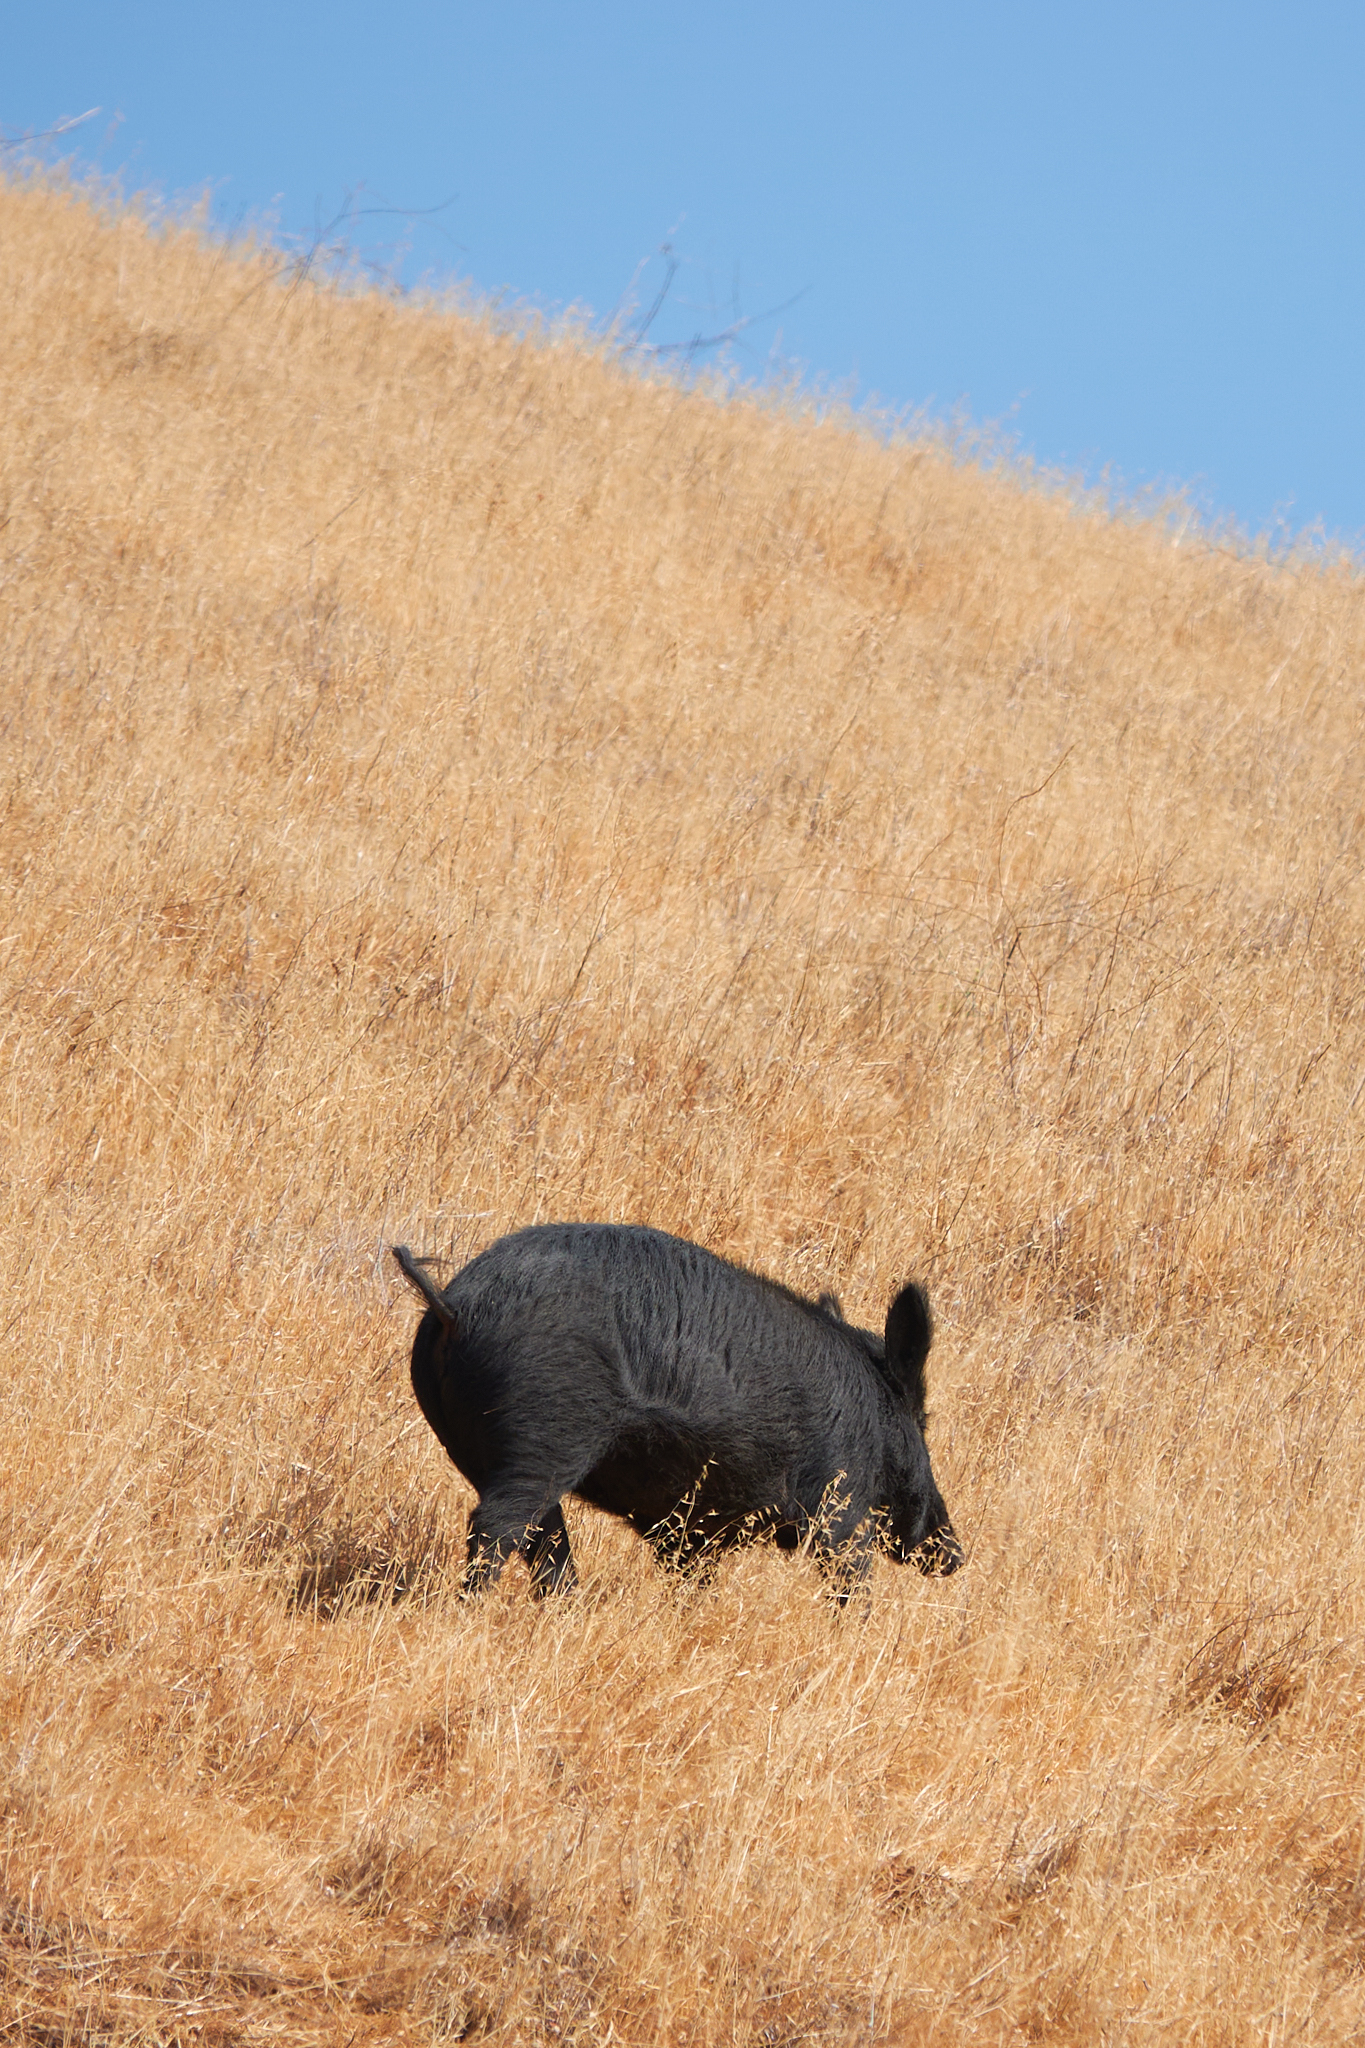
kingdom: Animalia
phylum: Chordata
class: Mammalia
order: Artiodactyla
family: Suidae
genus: Sus
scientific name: Sus scrofa
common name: Wild boar
